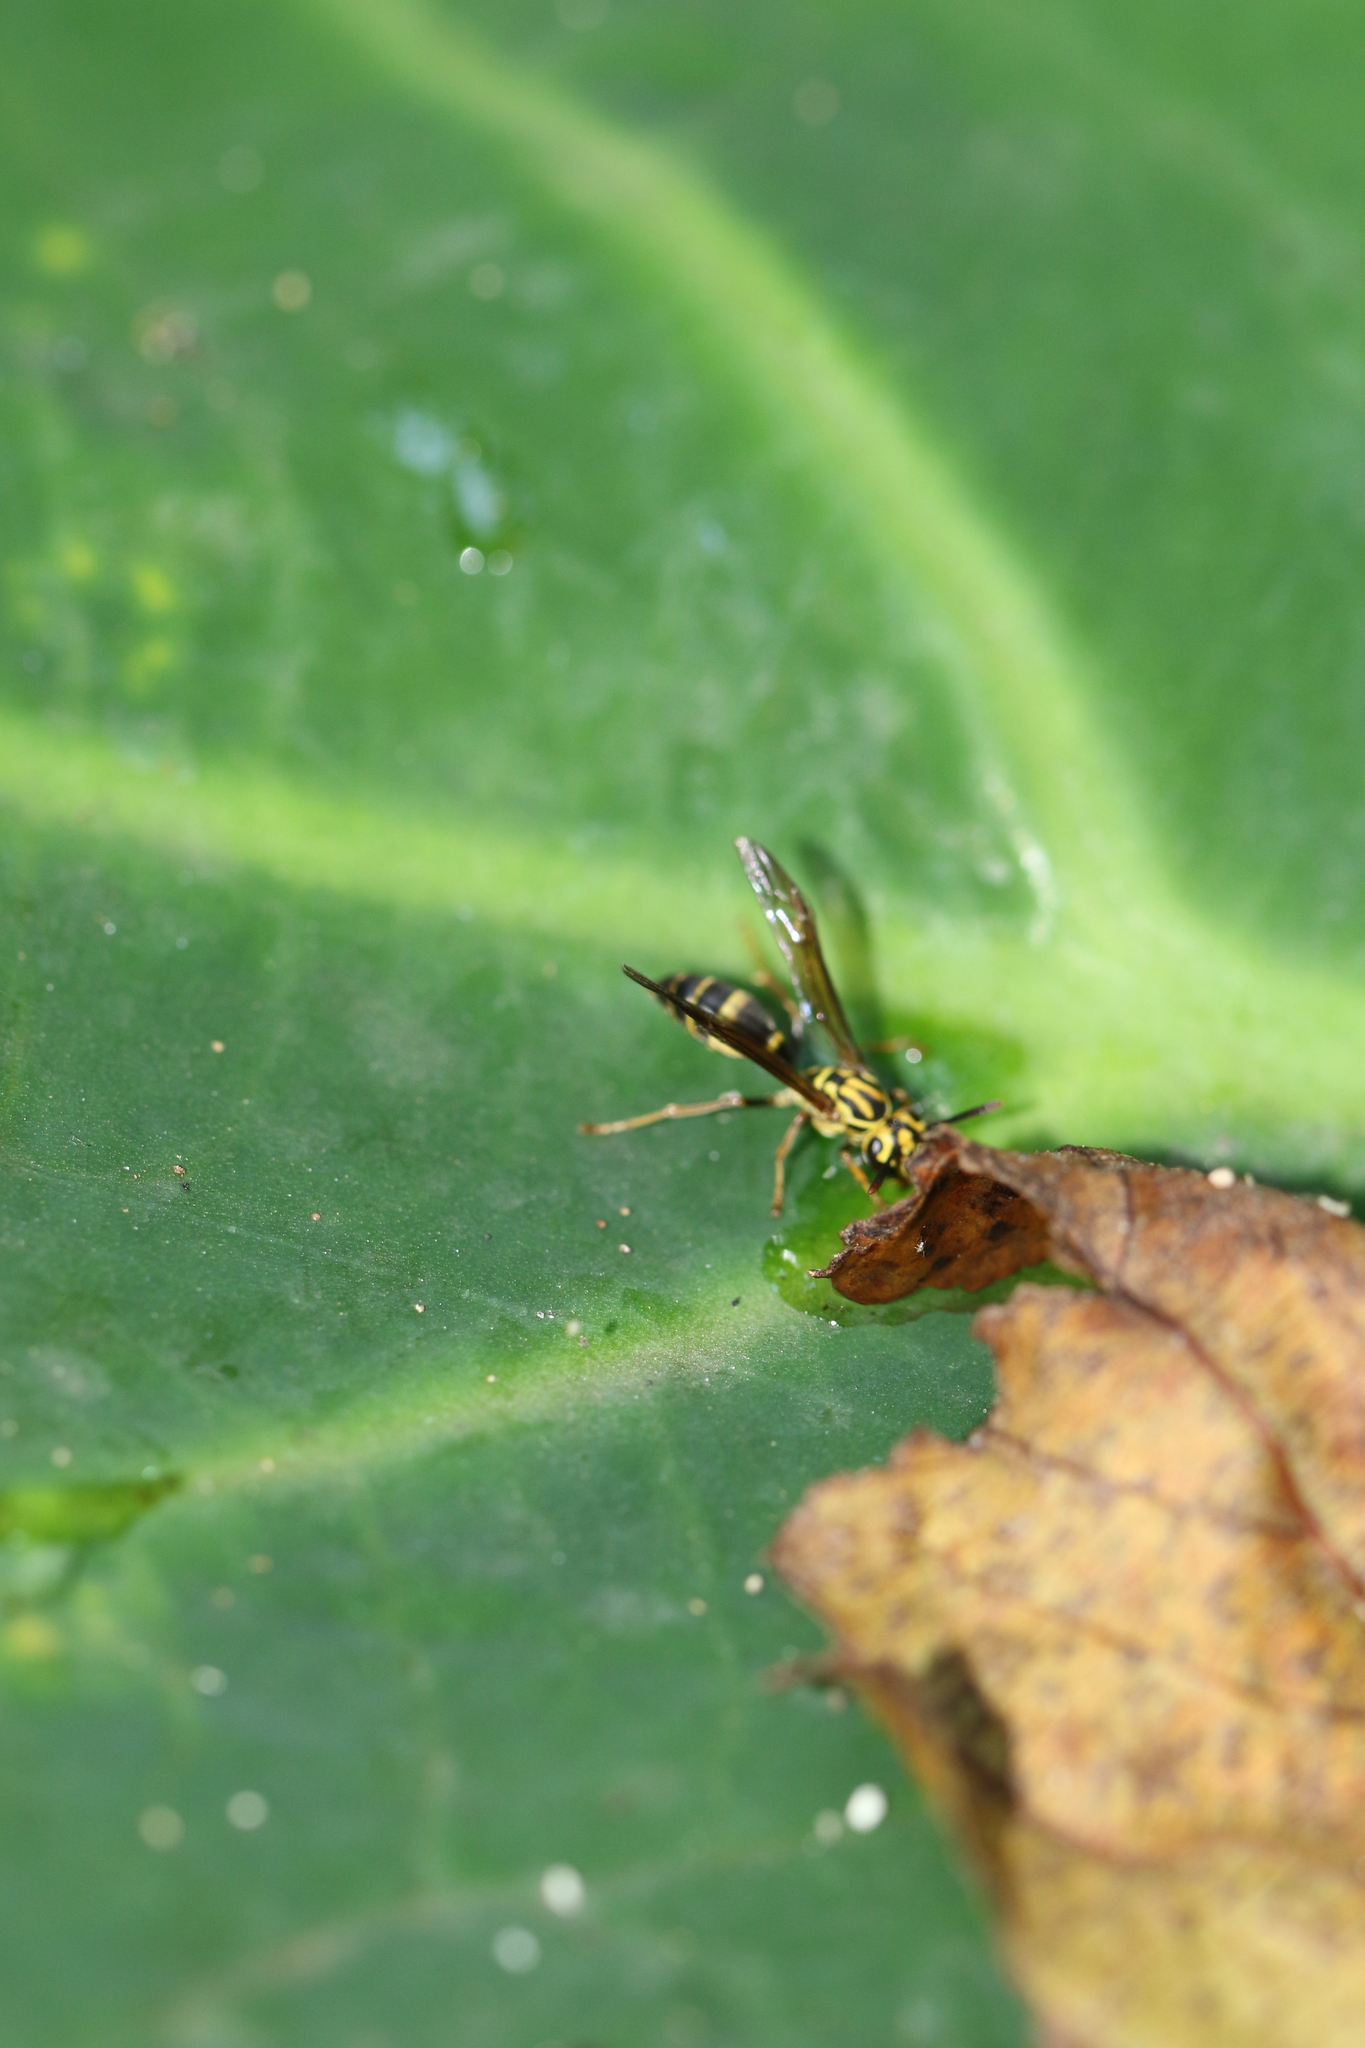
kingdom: Animalia
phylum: Arthropoda
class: Insecta
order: Hymenoptera
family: Eumenidae
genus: Polybia
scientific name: Polybia fastidiosuscula
